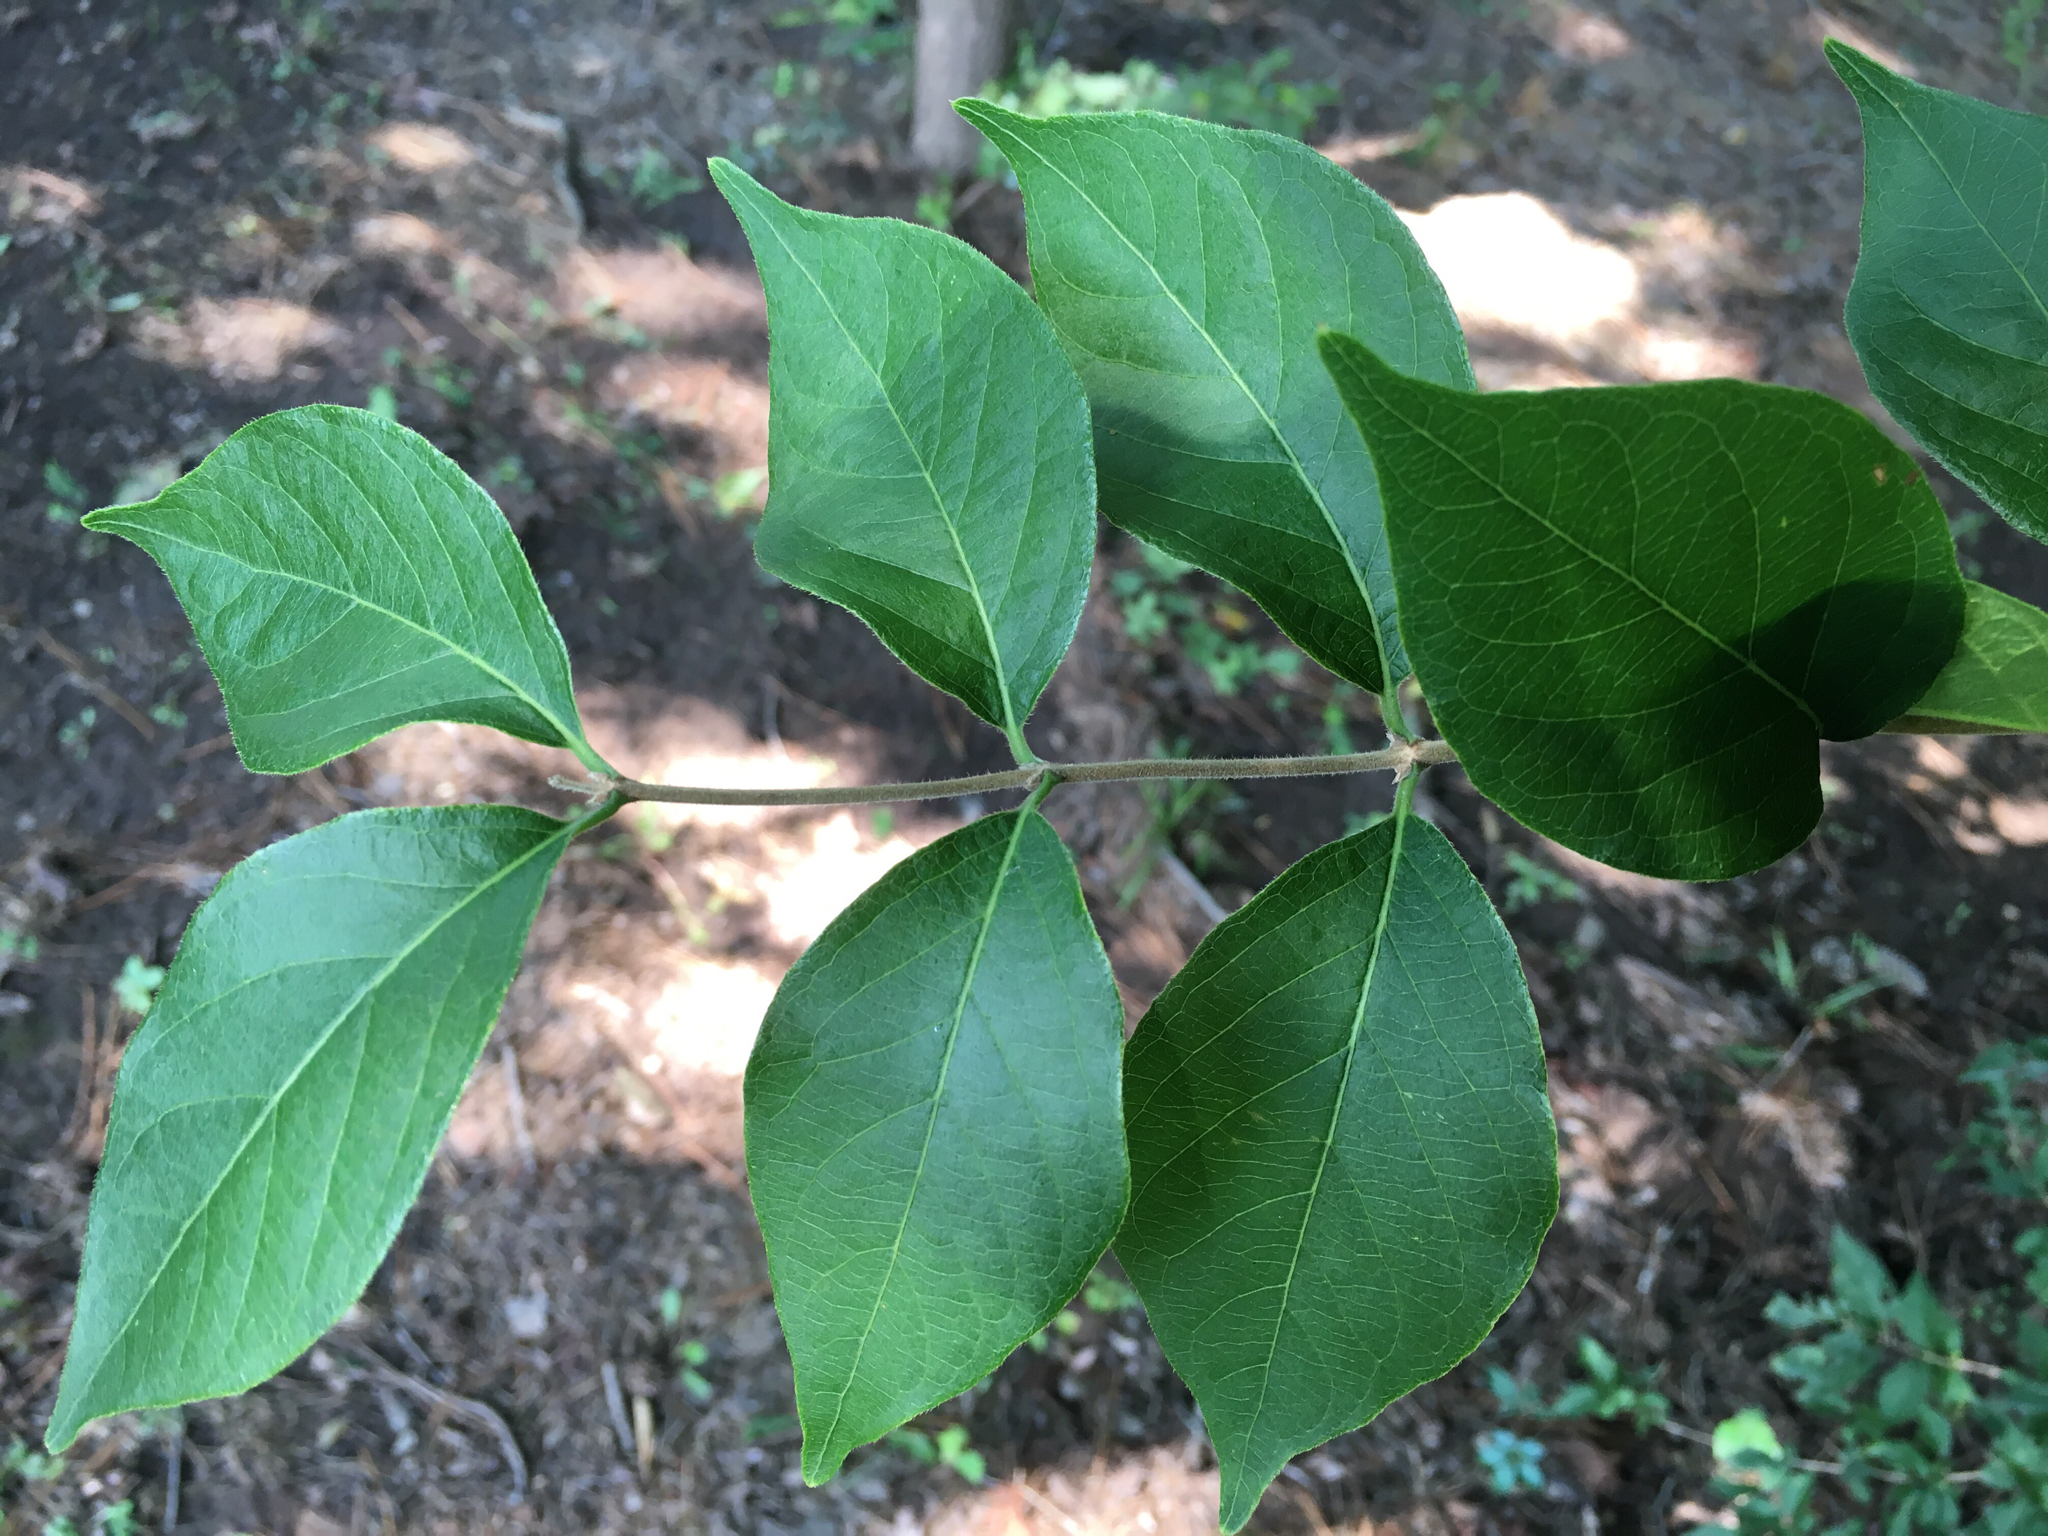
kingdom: Plantae
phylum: Tracheophyta
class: Magnoliopsida
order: Dipsacales
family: Caprifoliaceae
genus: Lonicera
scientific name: Lonicera maackii
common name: Amur honeysuckle
